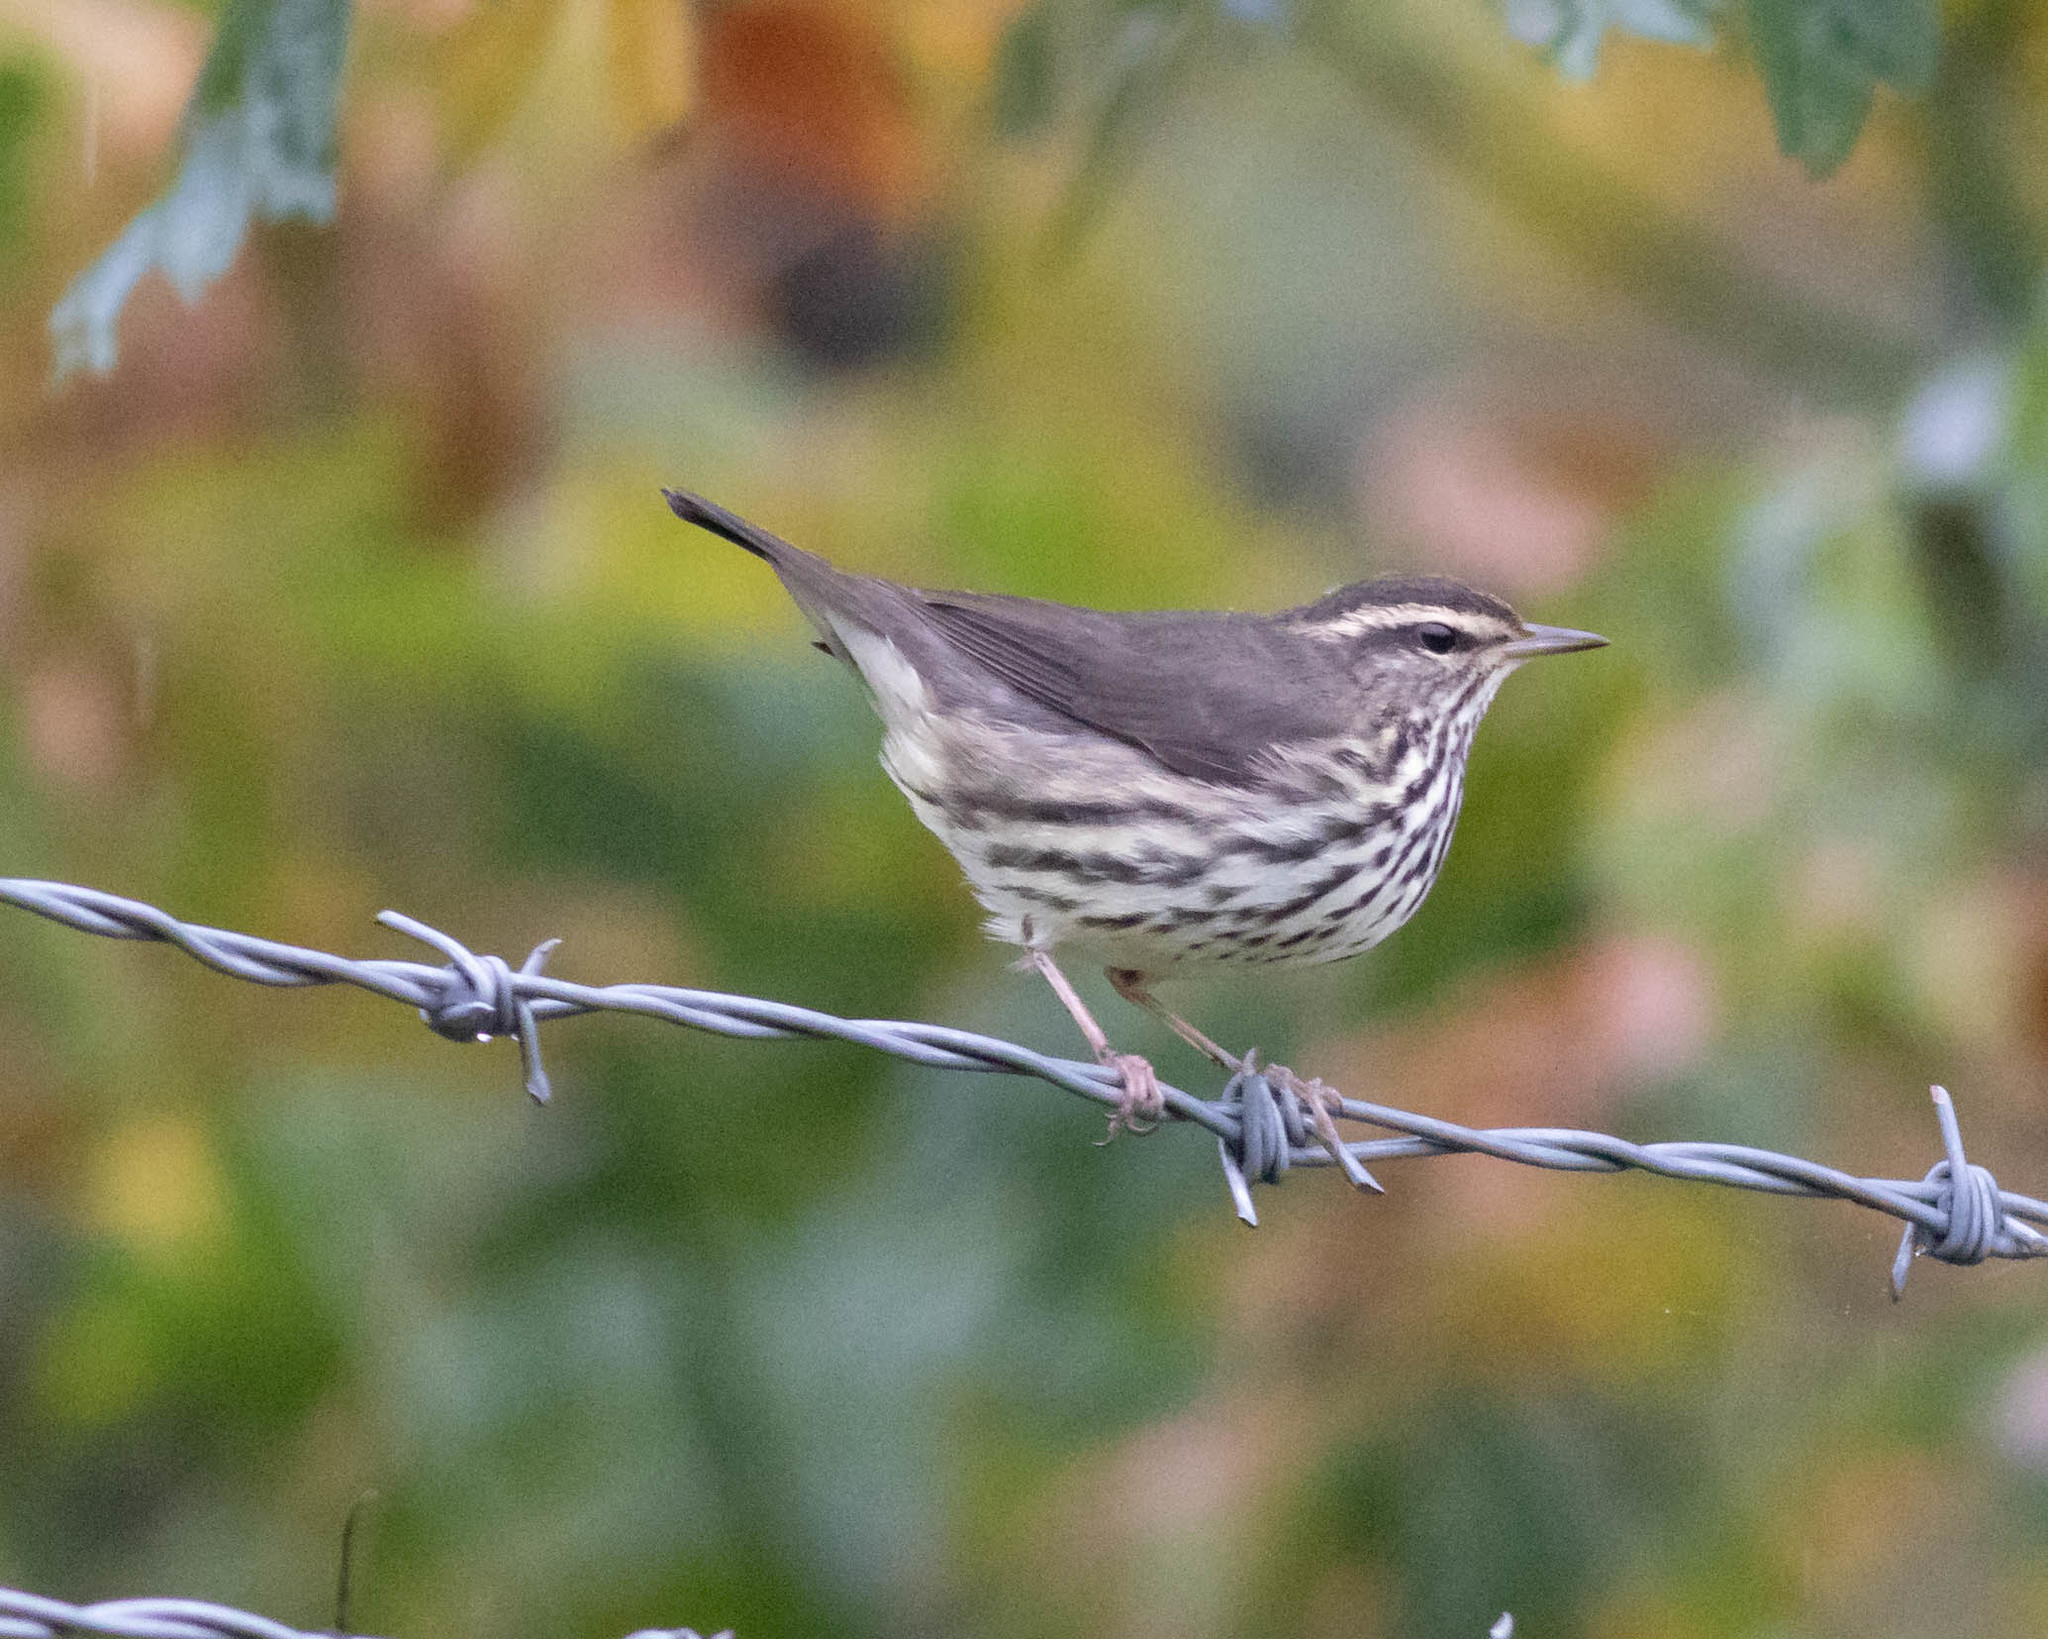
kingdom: Animalia
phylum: Chordata
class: Aves
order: Passeriformes
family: Parulidae
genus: Parkesia
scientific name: Parkesia noveboracensis
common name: Northern waterthrush
